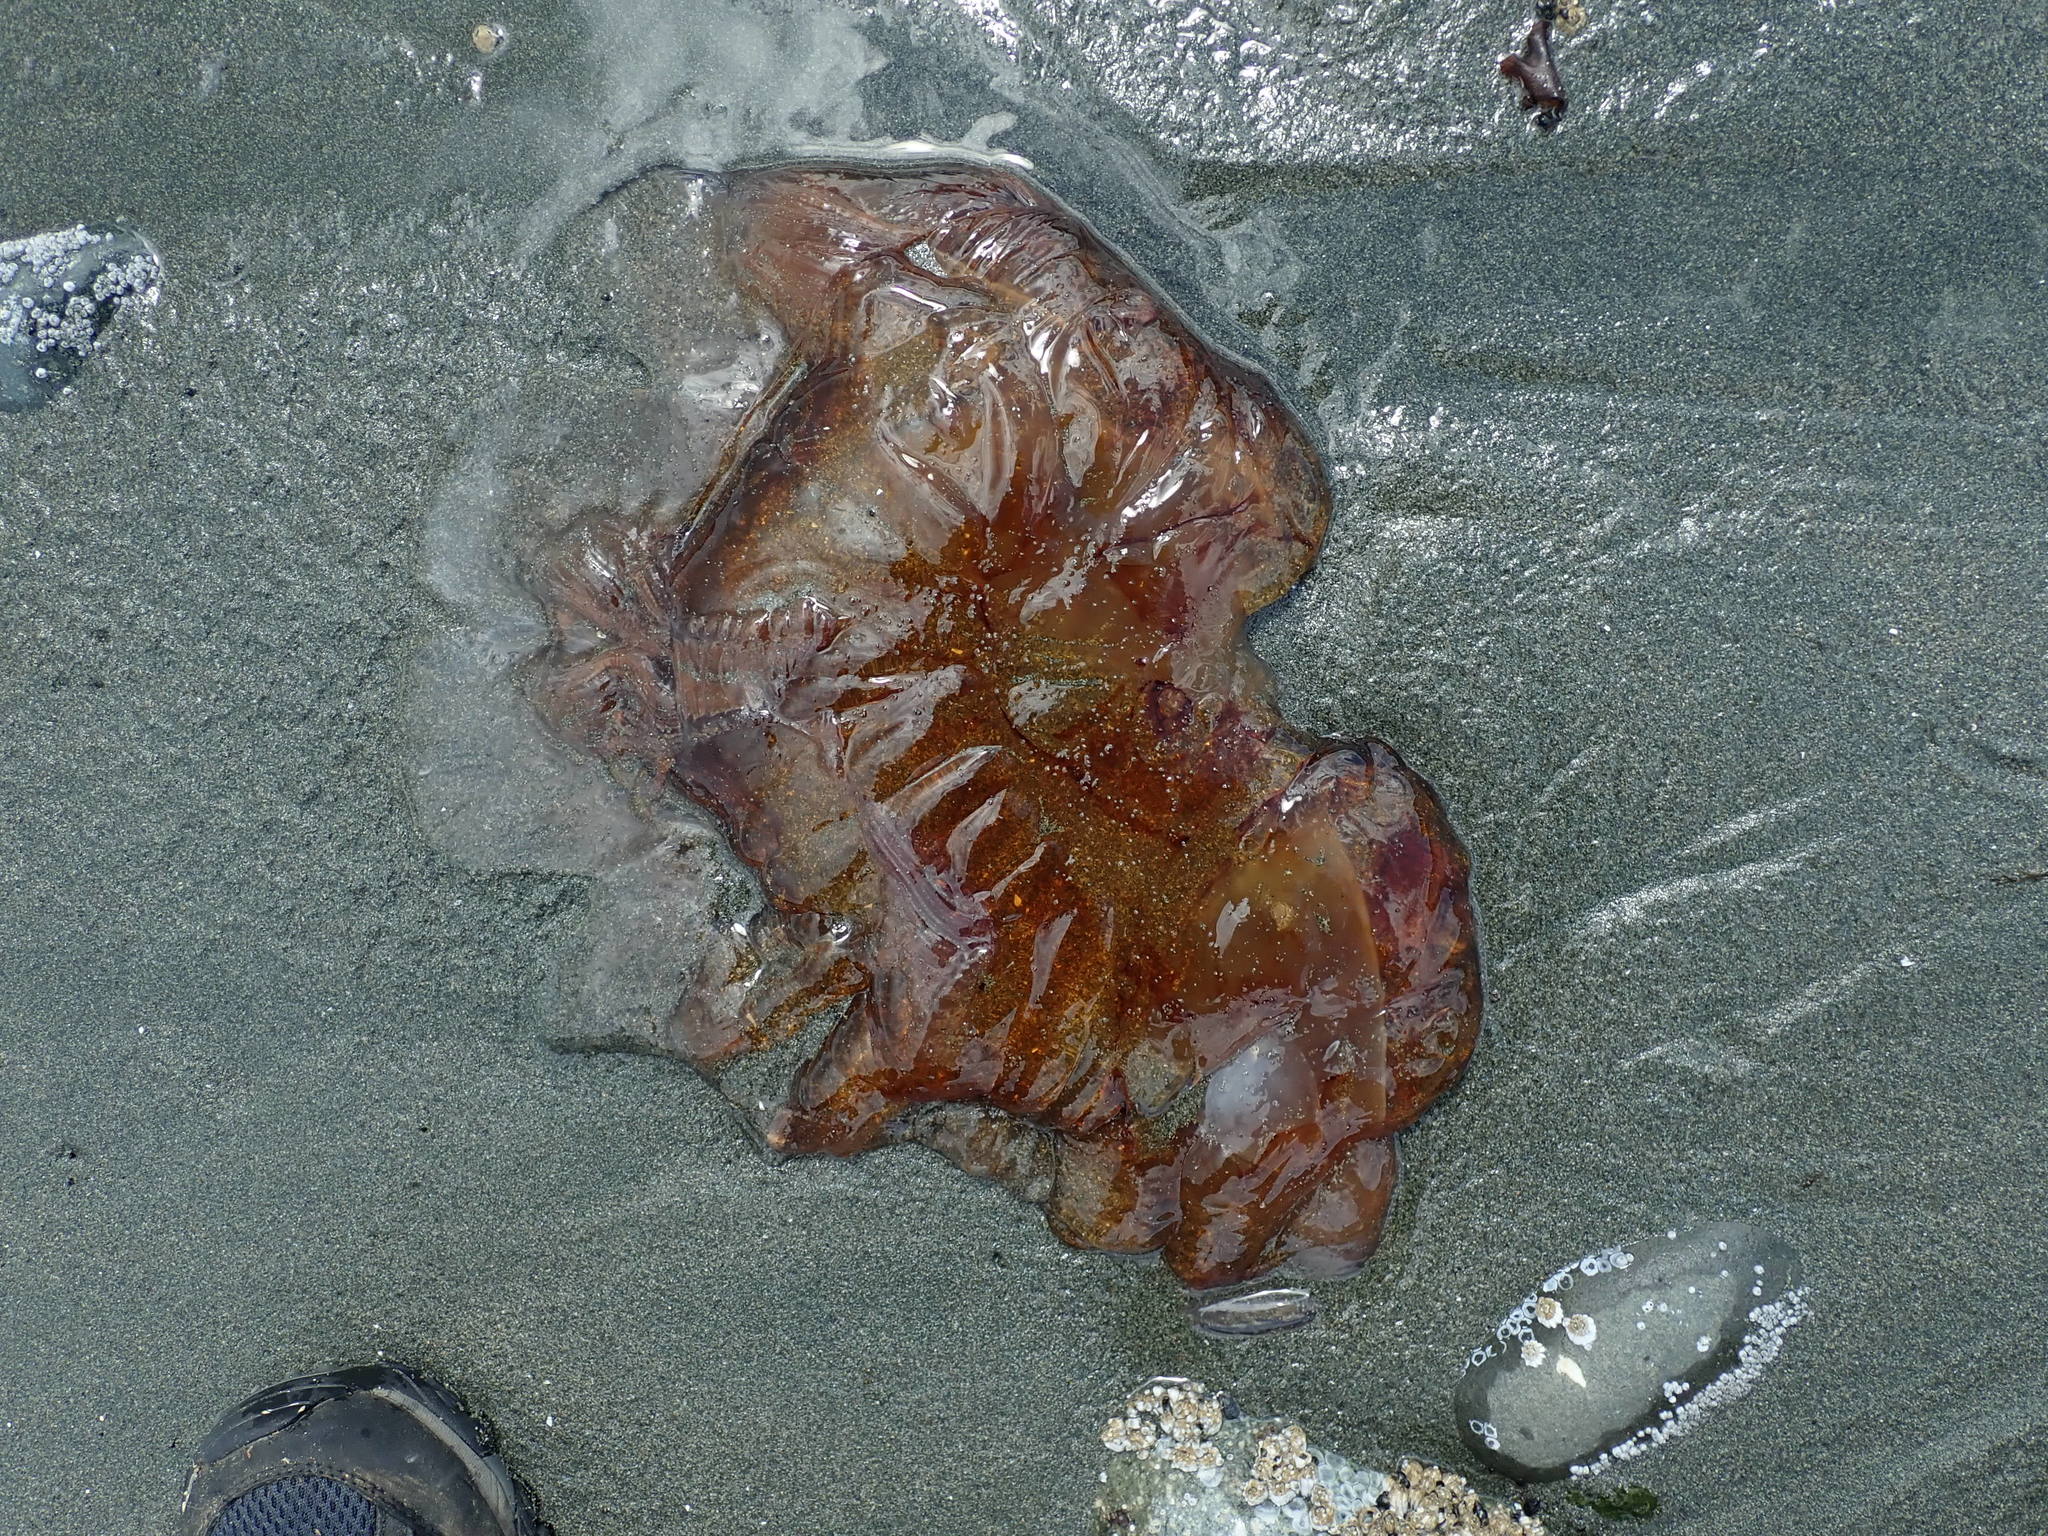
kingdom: Animalia
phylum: Cnidaria
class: Scyphozoa
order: Semaeostomeae
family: Cyaneidae
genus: Cyanea
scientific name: Cyanea ferruginea
